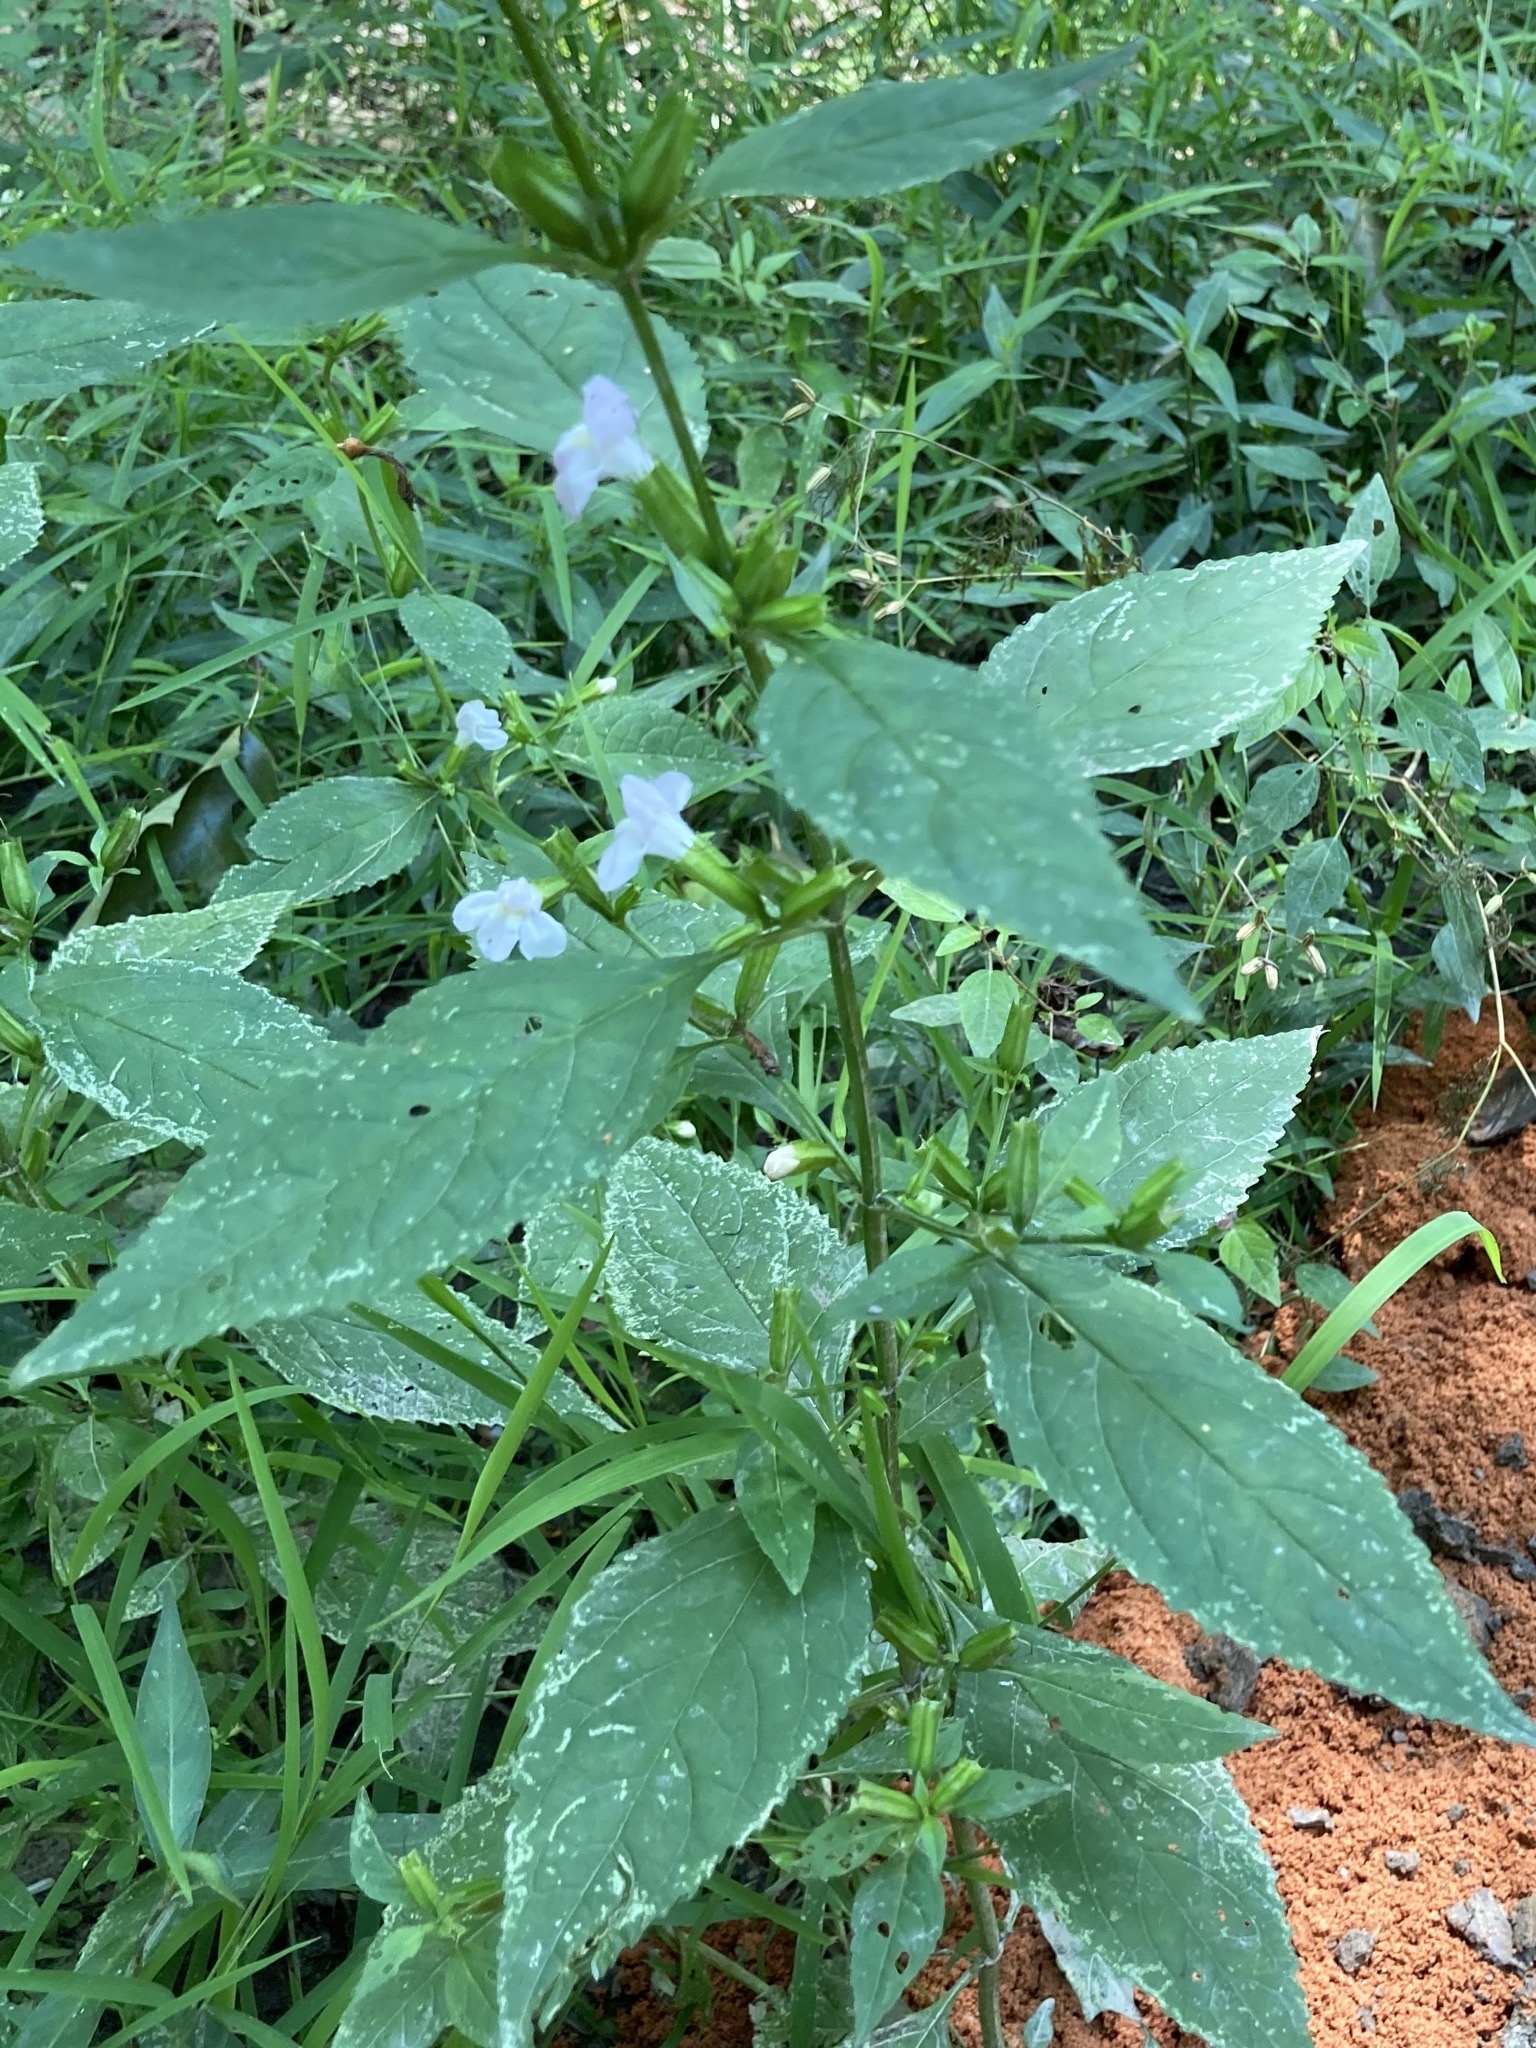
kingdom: Plantae
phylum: Tracheophyta
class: Magnoliopsida
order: Lamiales
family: Phrymaceae
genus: Mimulus
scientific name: Mimulus alatus
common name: Sharp-wing monkey-flower
